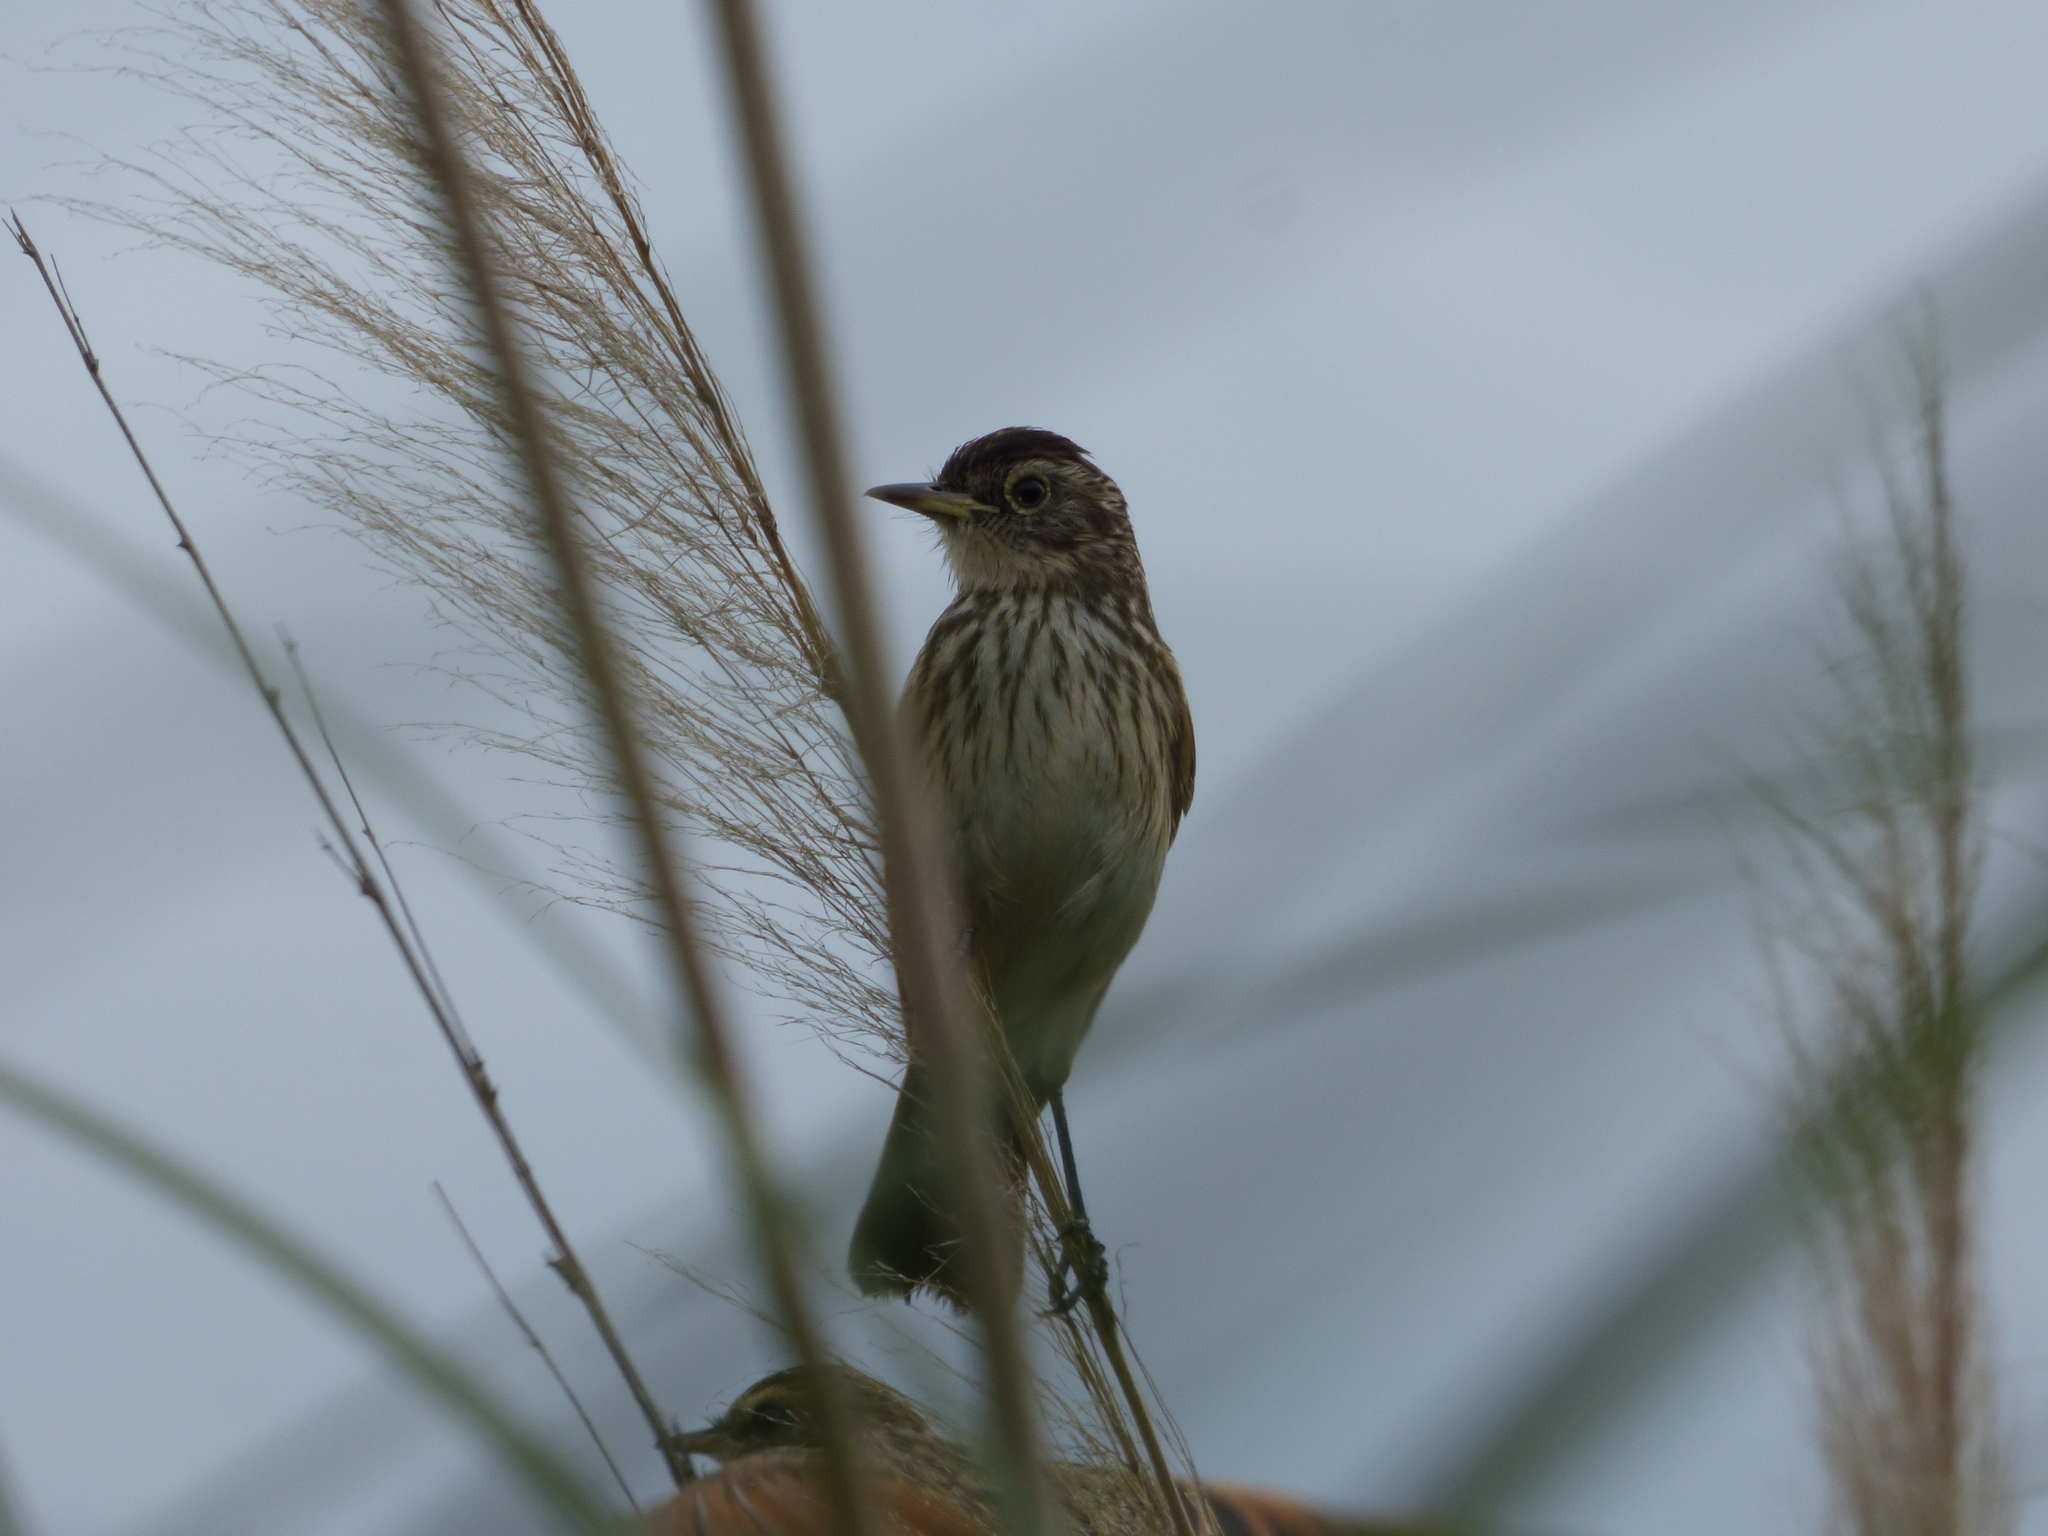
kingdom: Animalia
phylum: Chordata
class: Aves
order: Passeriformes
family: Tyrannidae
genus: Hymenops
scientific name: Hymenops perspicillatus
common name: Spectacled tyrant
